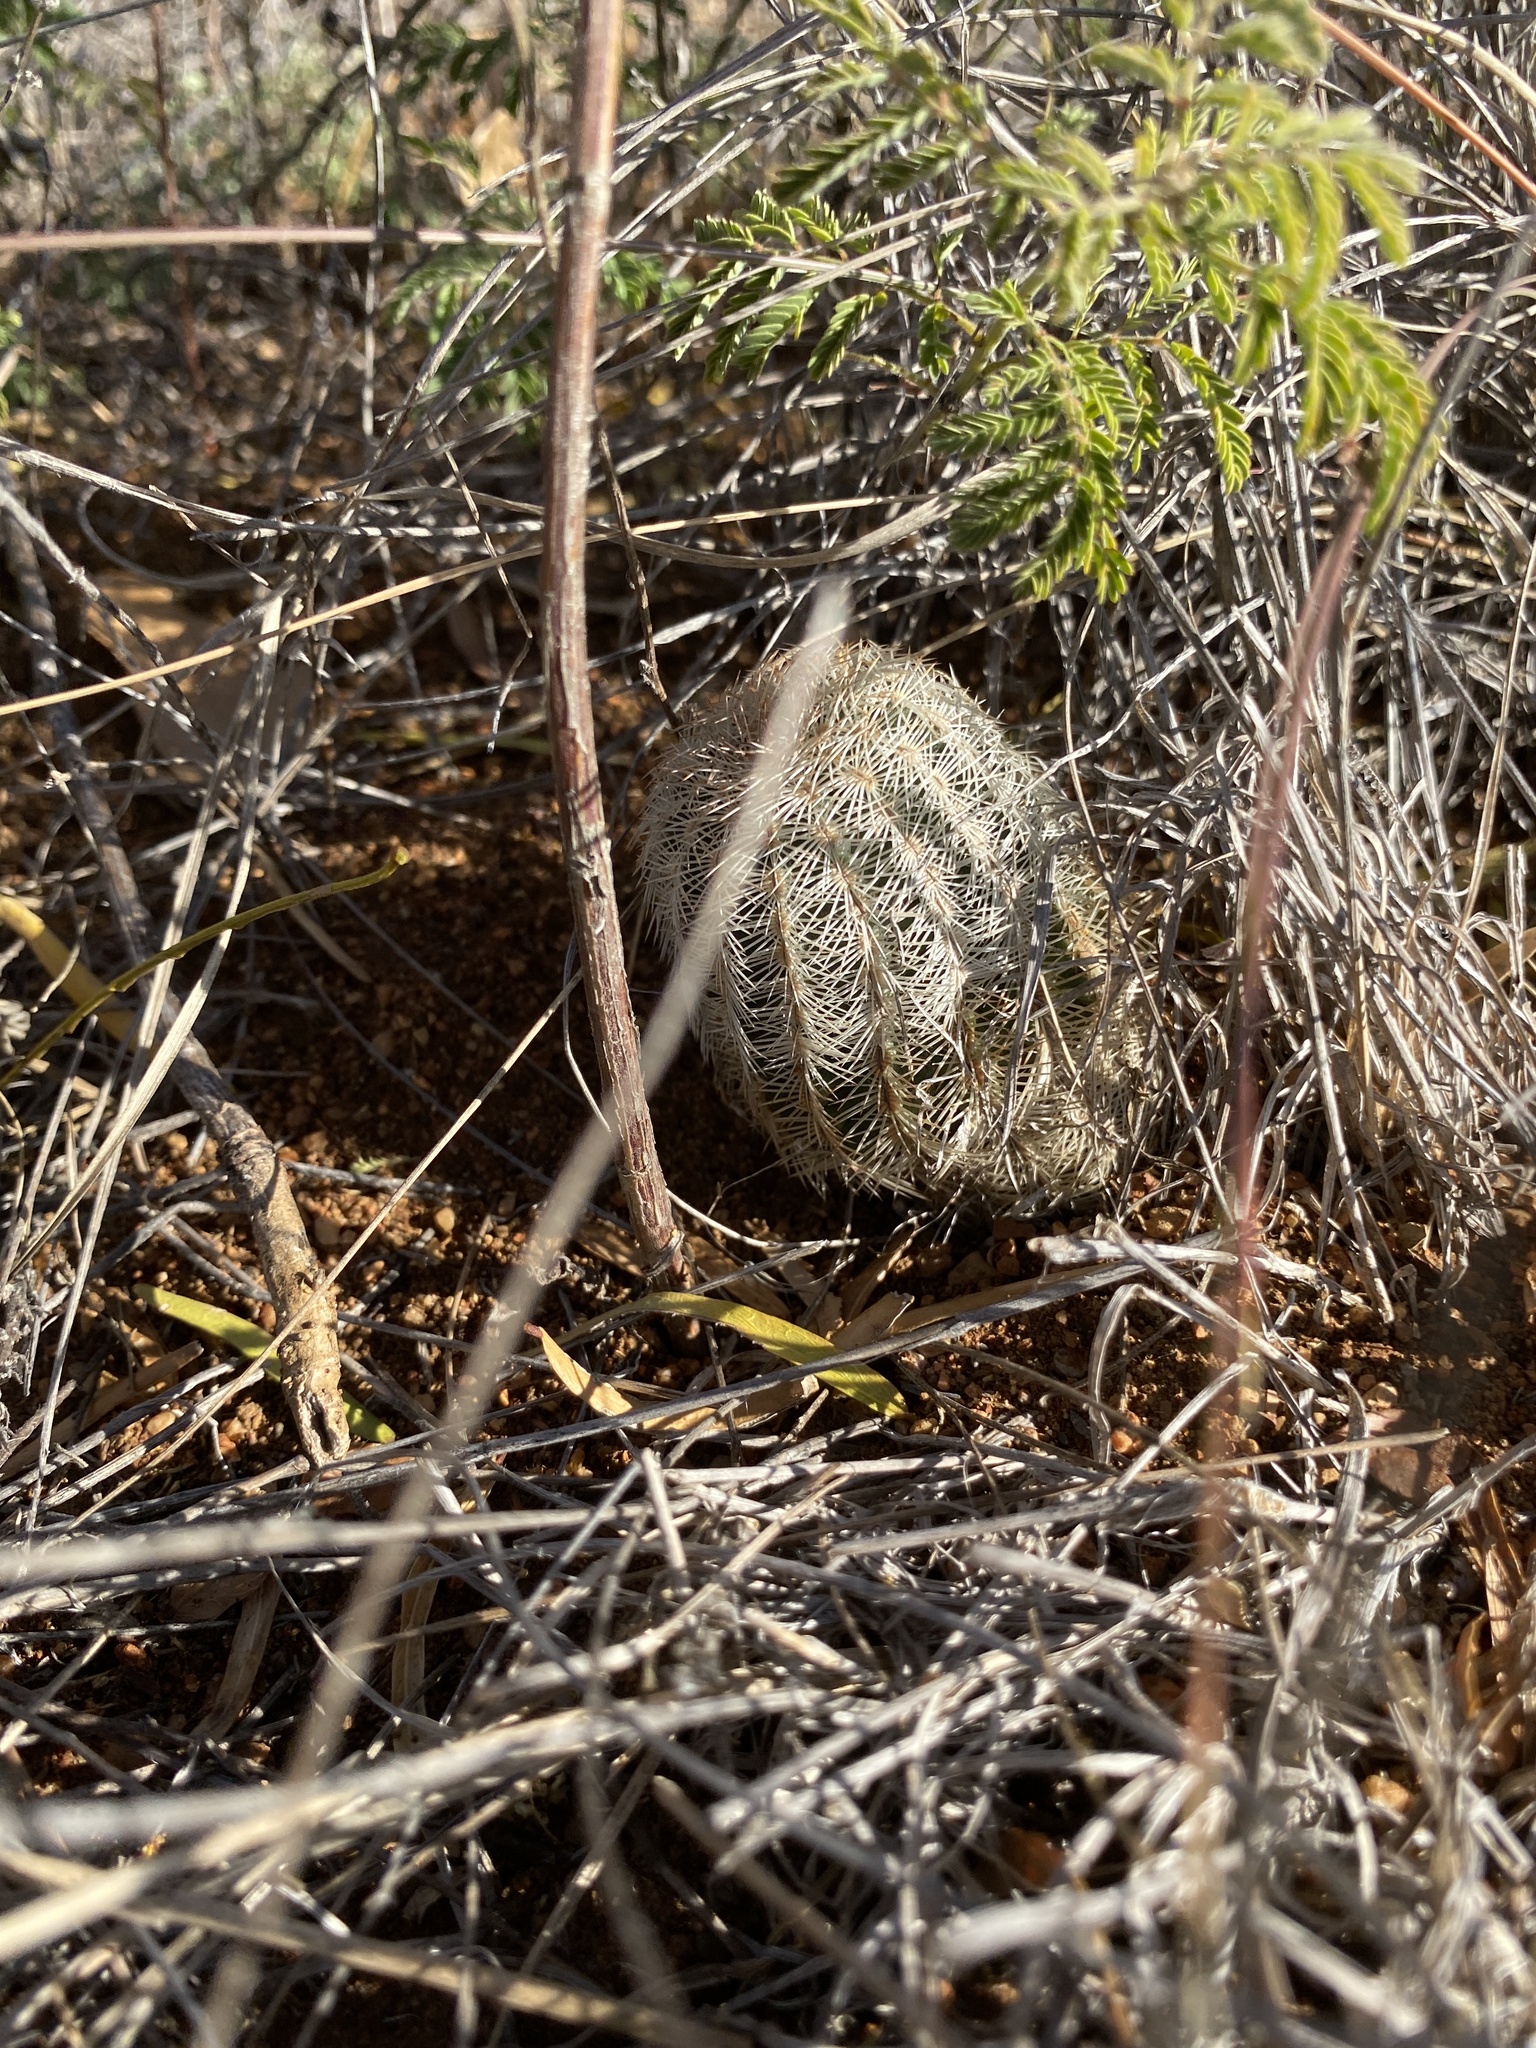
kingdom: Plantae
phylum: Tracheophyta
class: Magnoliopsida
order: Caryophyllales
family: Cactaceae
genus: Echinocereus
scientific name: Echinocereus reichenbachii
